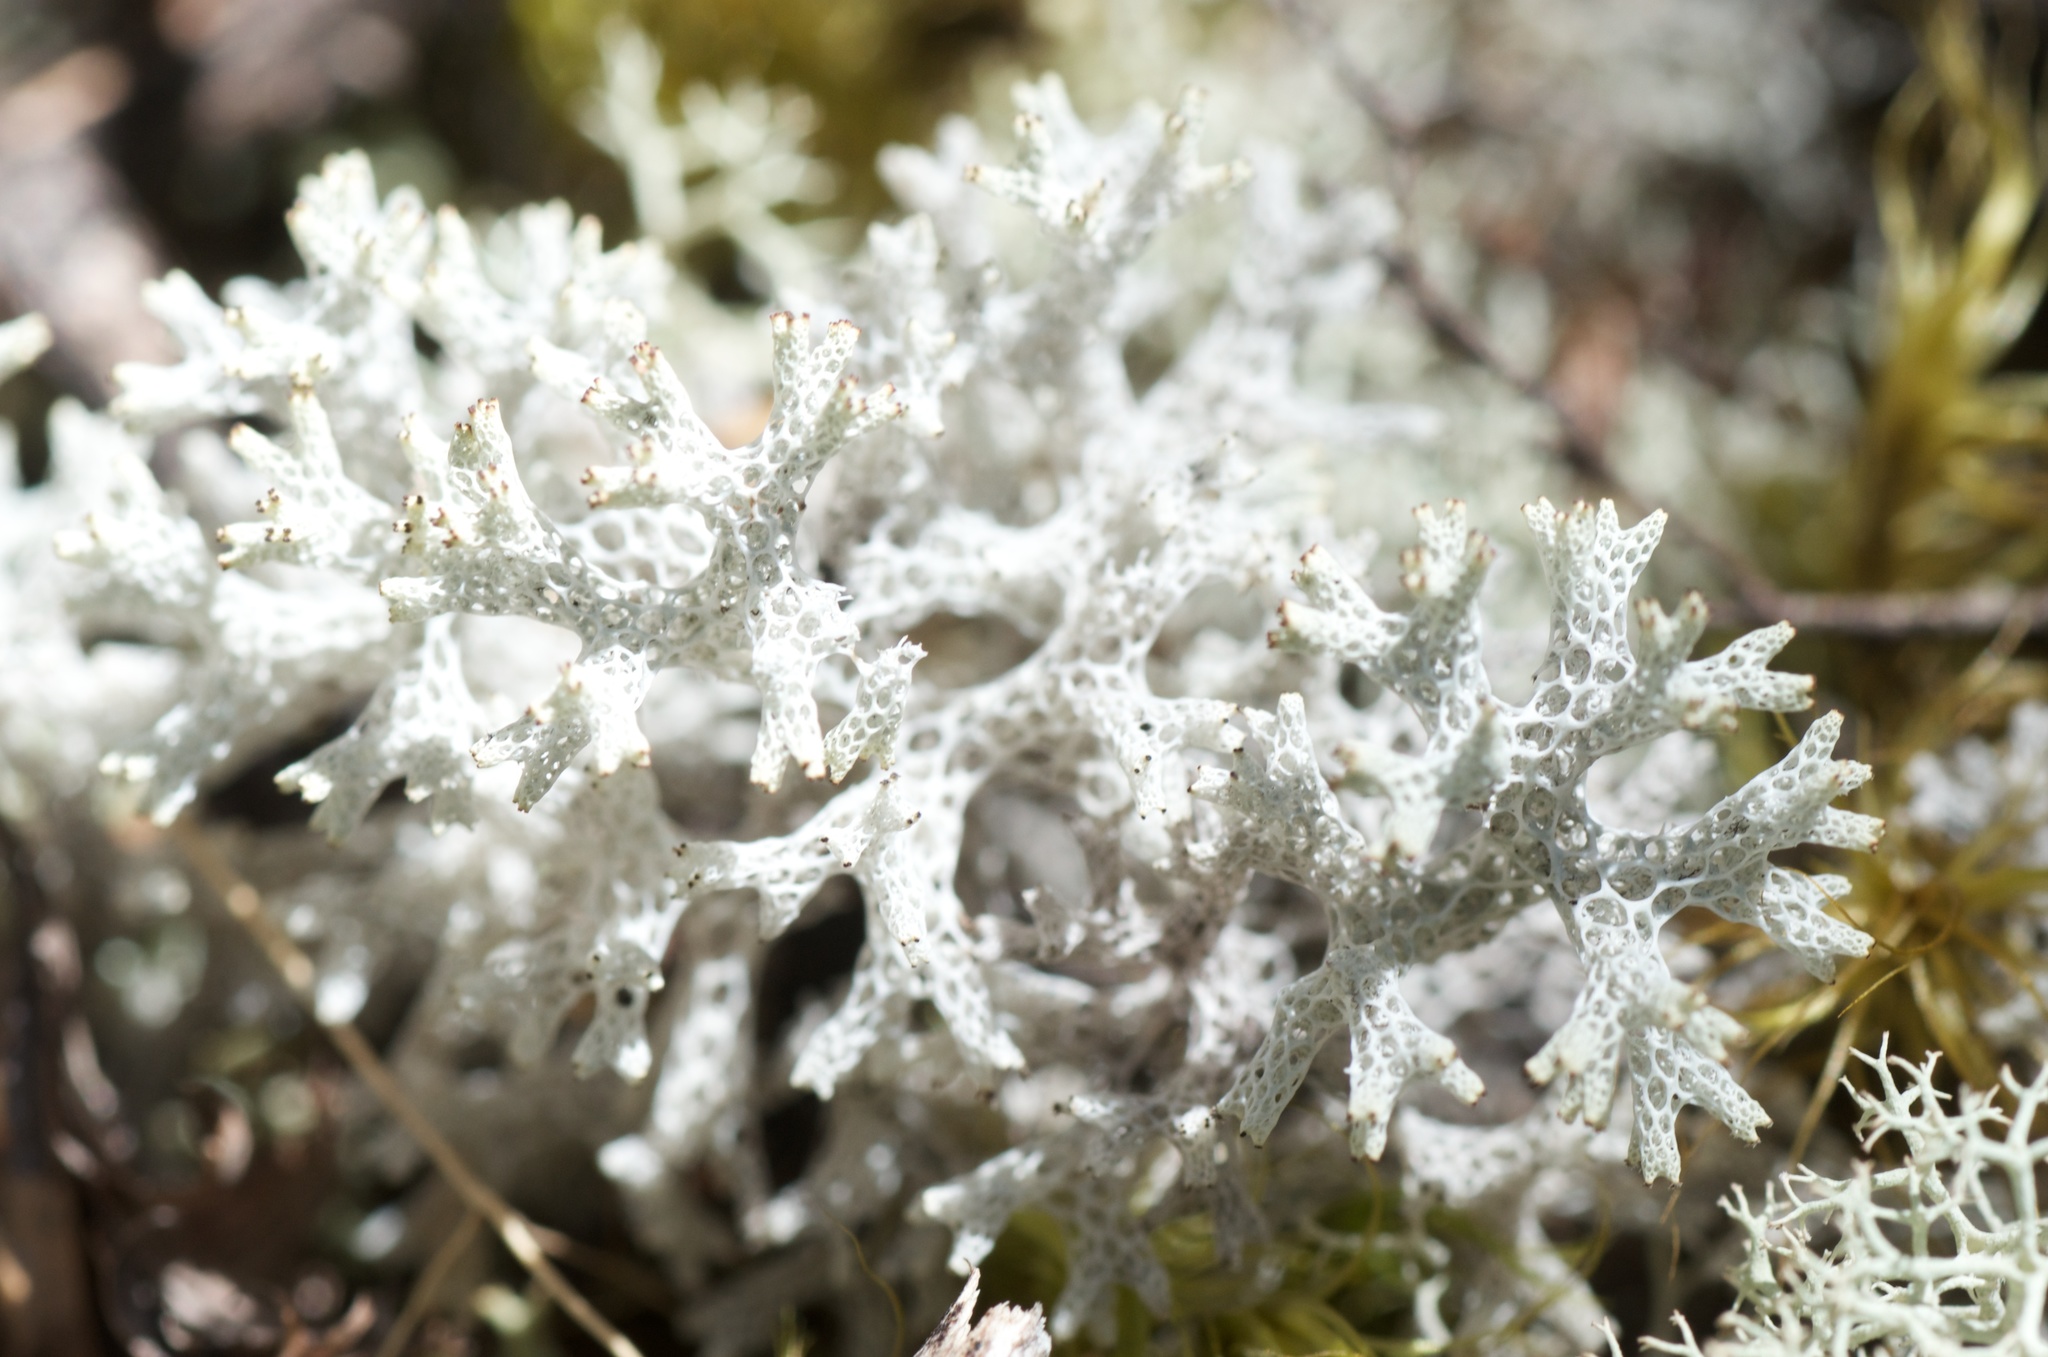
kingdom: Fungi
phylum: Ascomycota
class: Lecanoromycetes
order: Lecanorales
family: Cladoniaceae
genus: Pulchrocladia
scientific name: Pulchrocladia retipora
